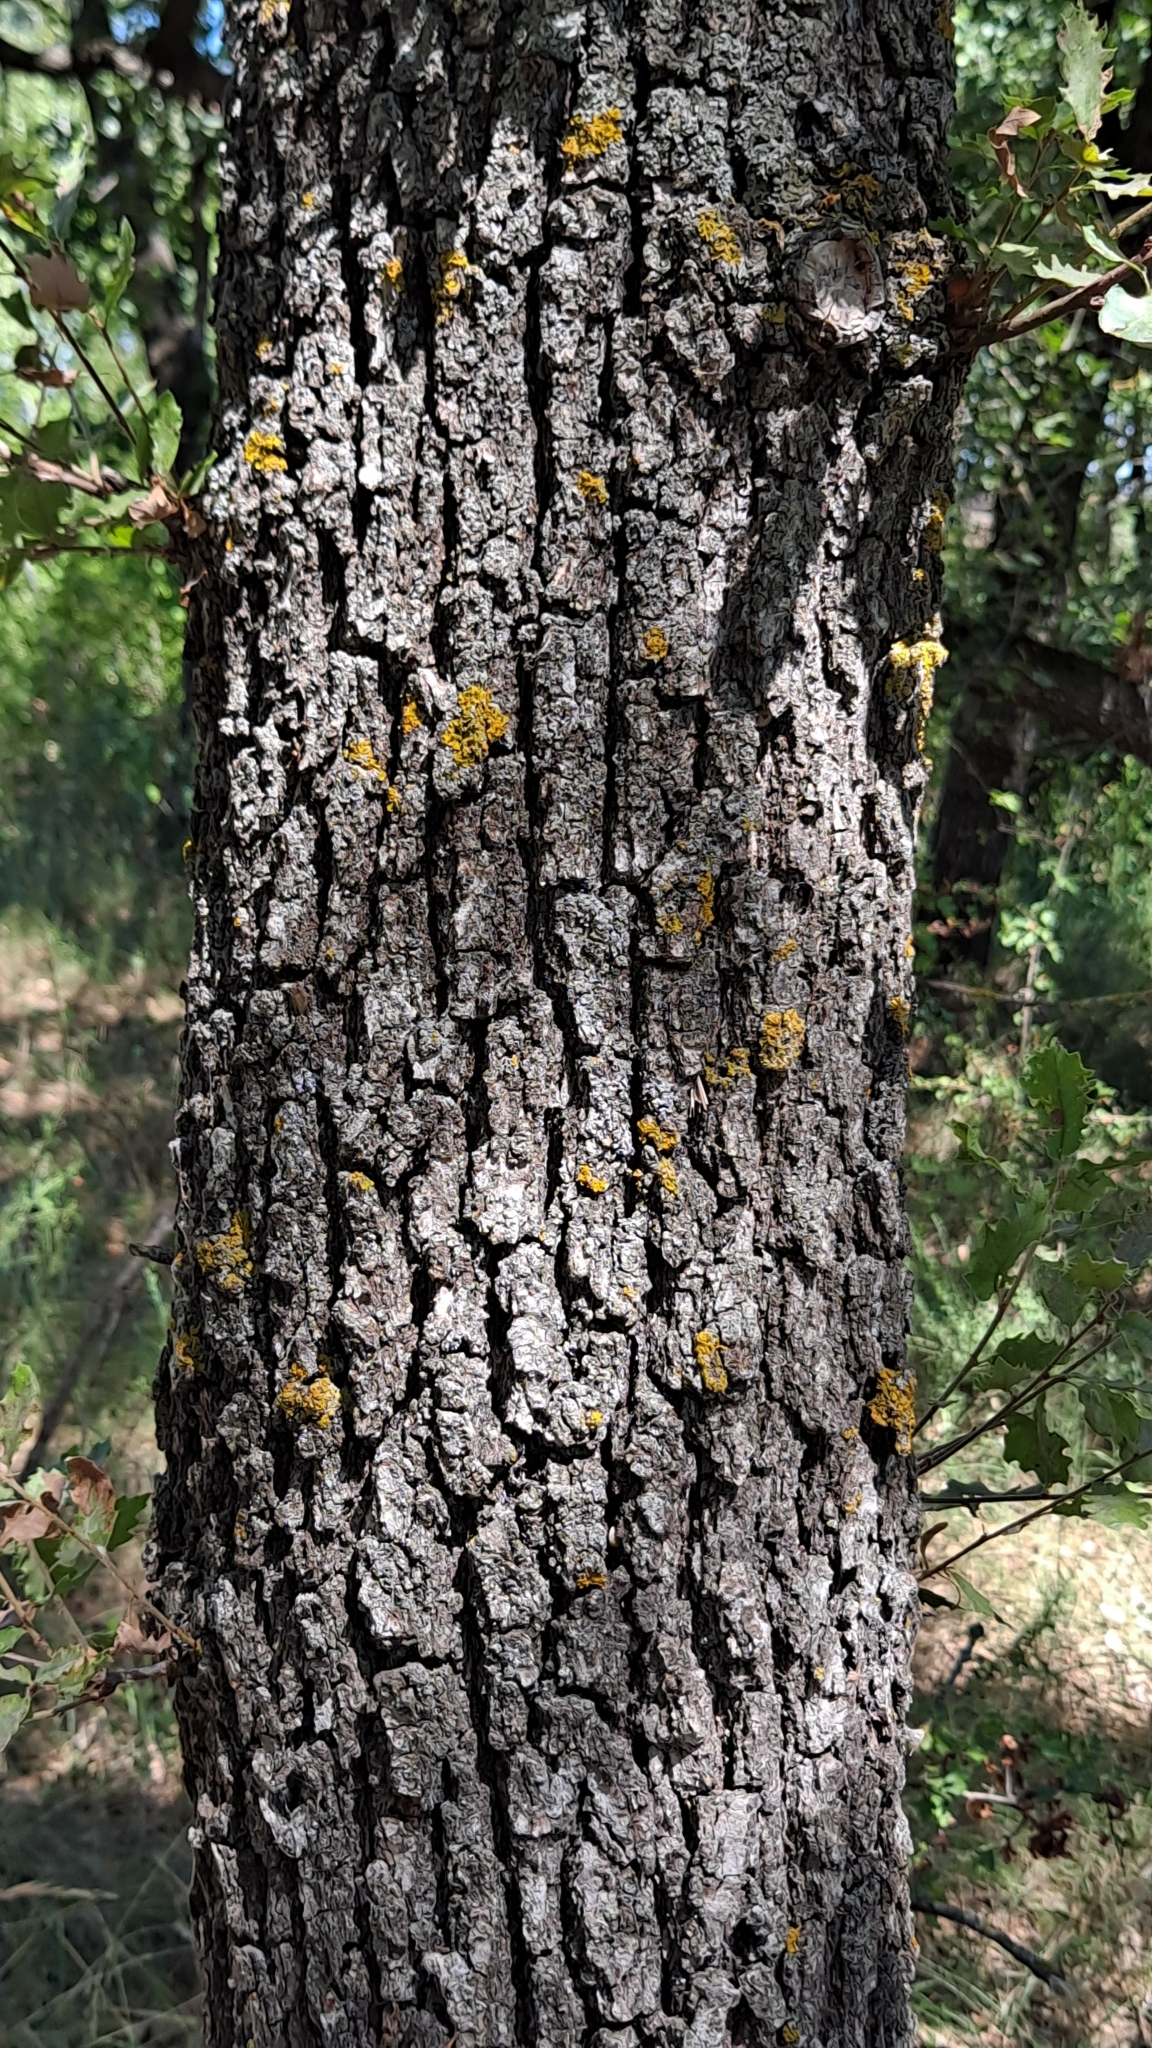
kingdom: Plantae
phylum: Tracheophyta
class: Magnoliopsida
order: Fagales
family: Fagaceae
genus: Quercus
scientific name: Quercus faginea
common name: Gall oak tree
